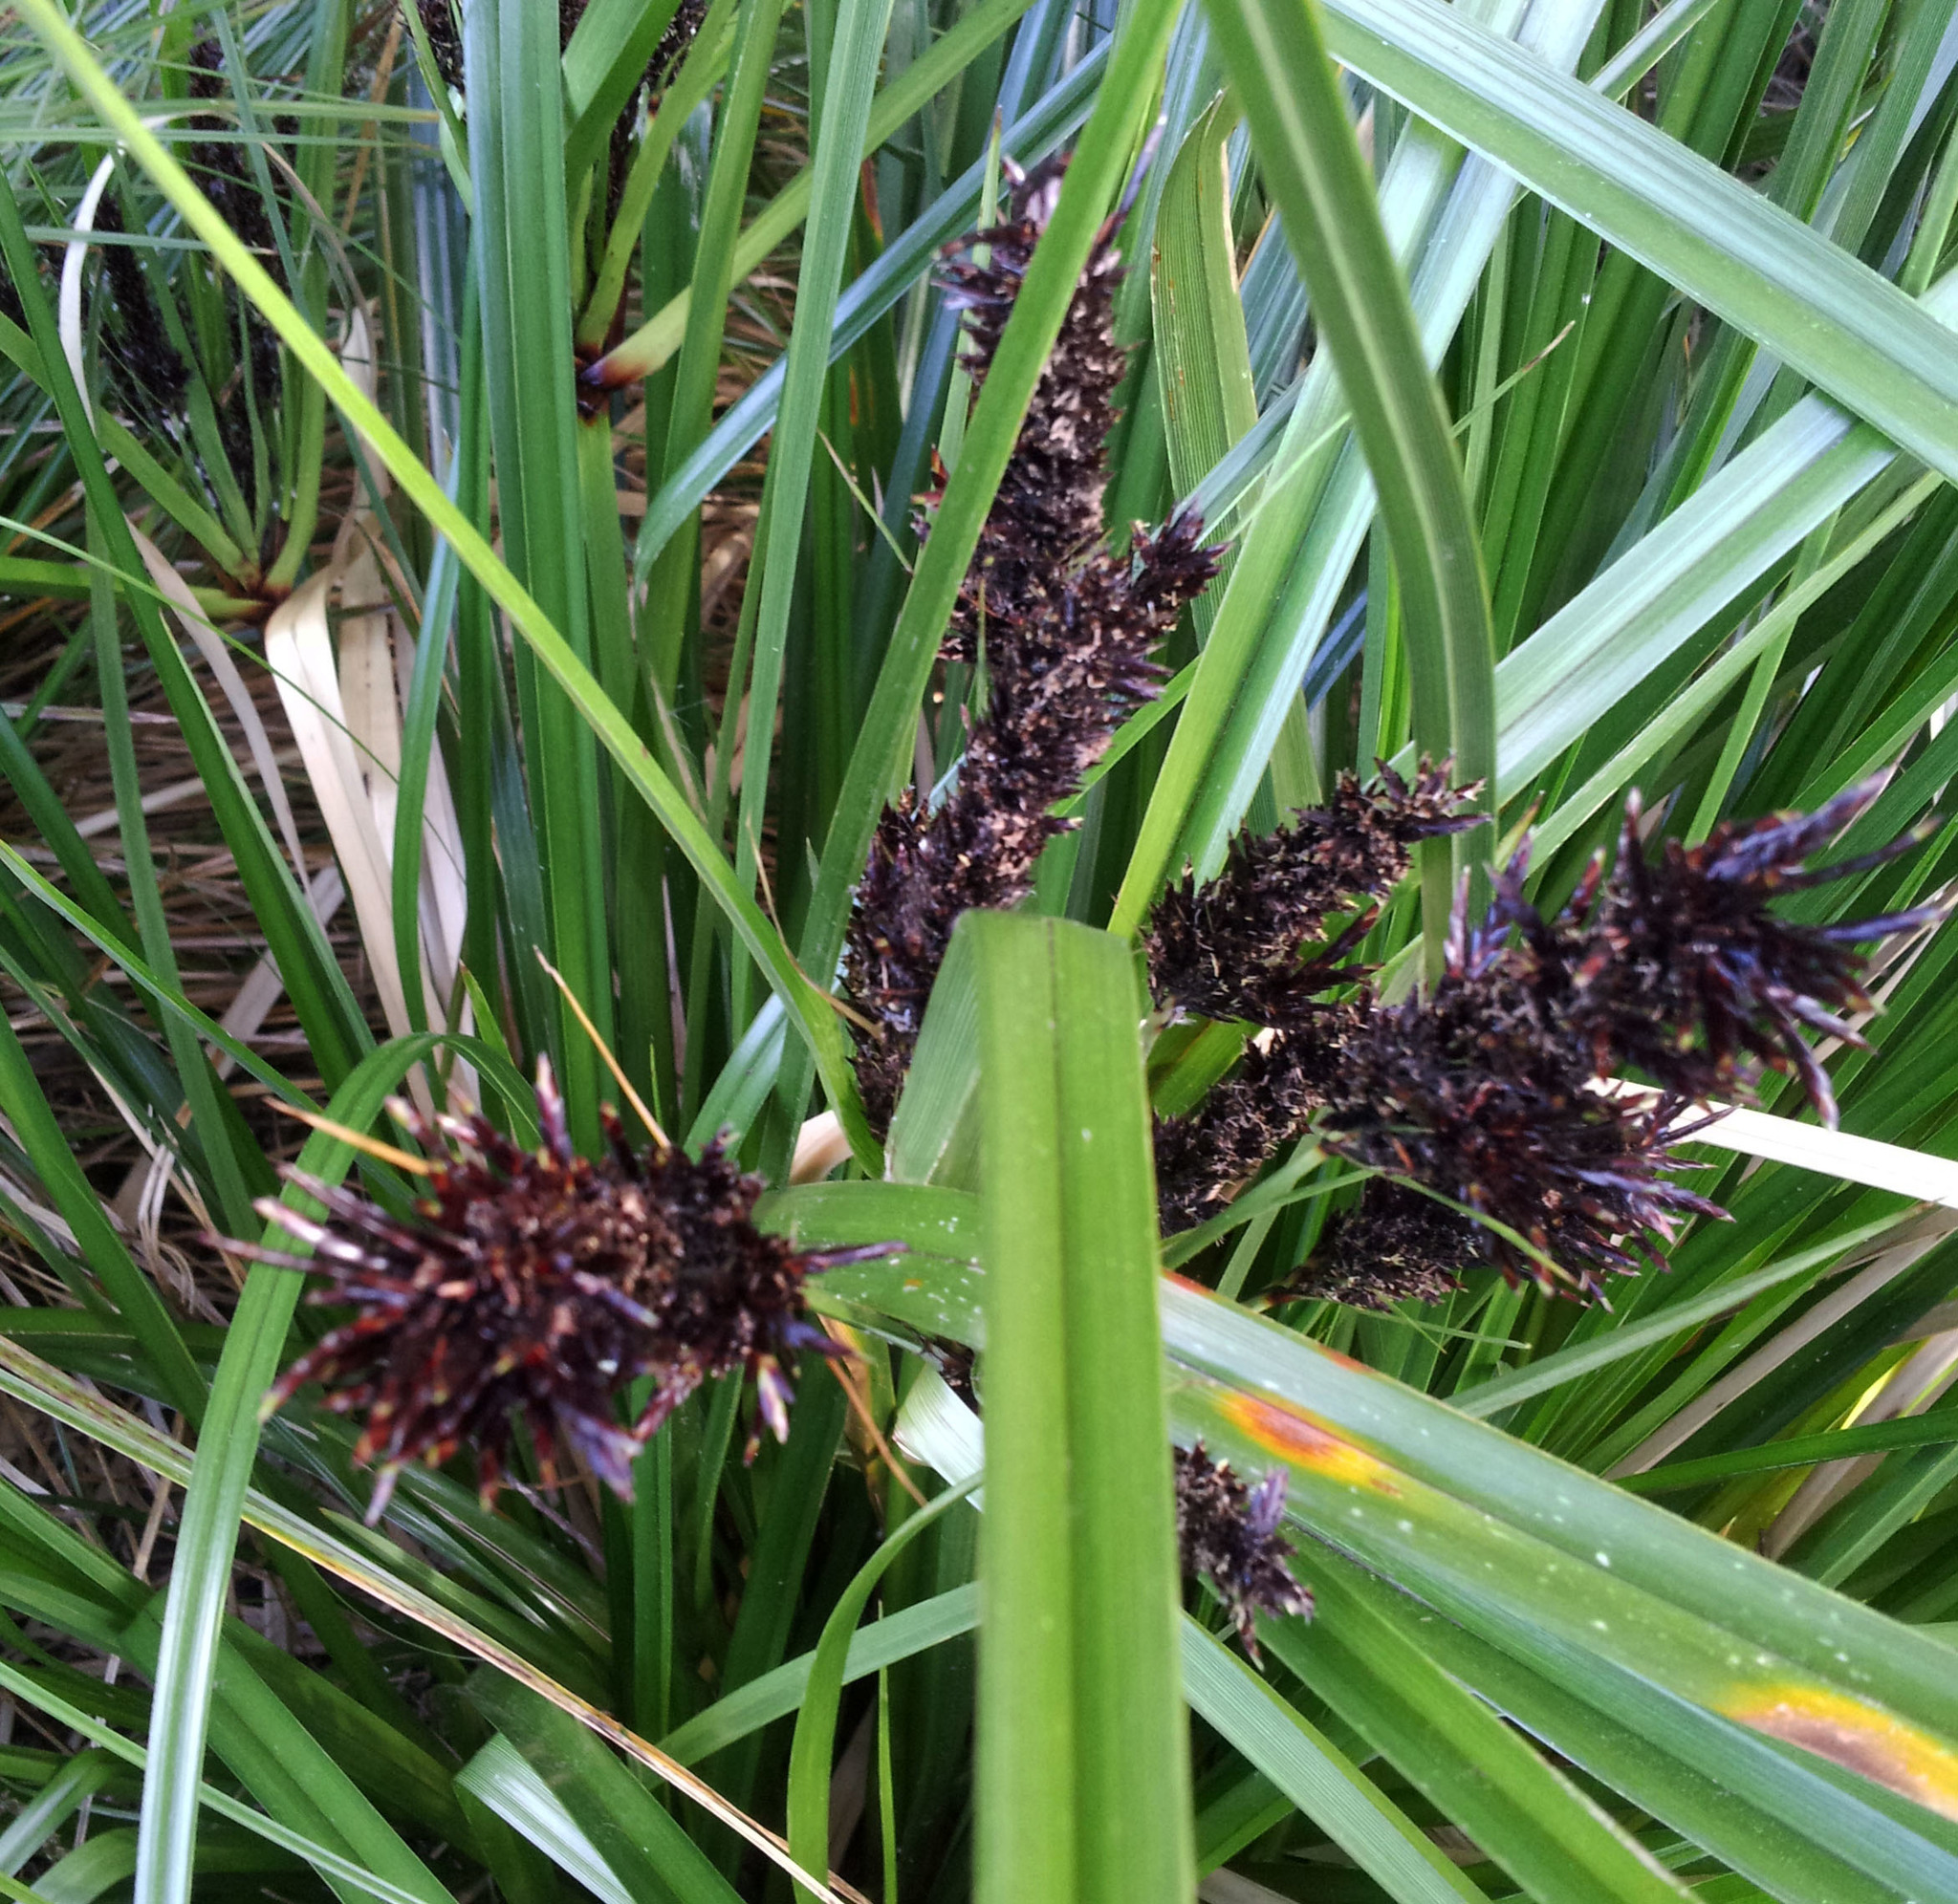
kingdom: Plantae
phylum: Tracheophyta
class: Liliopsida
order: Poales
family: Cyperaceae
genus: Cyperus
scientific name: Cyperus ustulatus
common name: Giant umbrella-sedge
